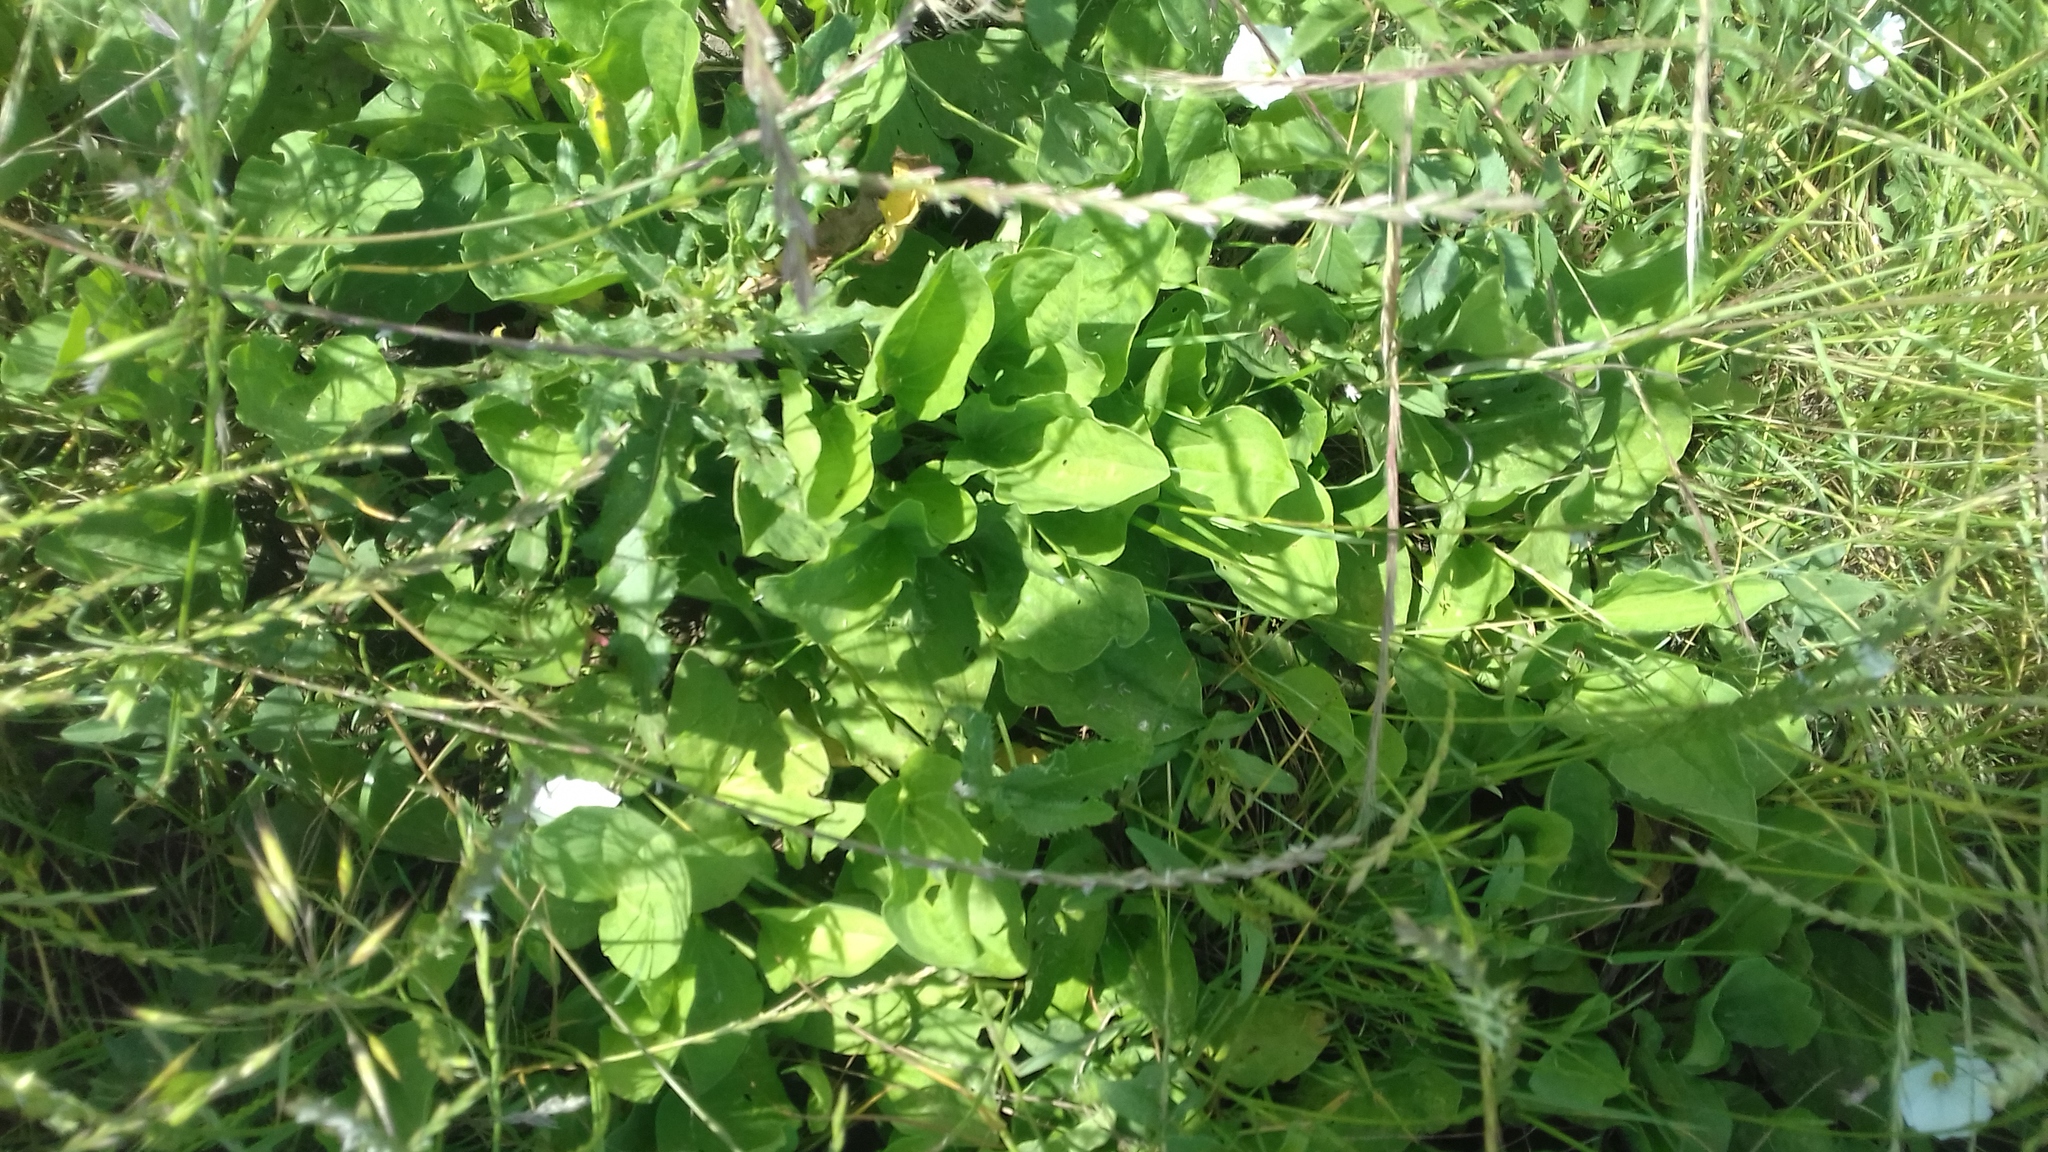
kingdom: Plantae
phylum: Tracheophyta
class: Magnoliopsida
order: Lamiales
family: Plantaginaceae
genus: Plantago
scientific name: Plantago major
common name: Common plantain
